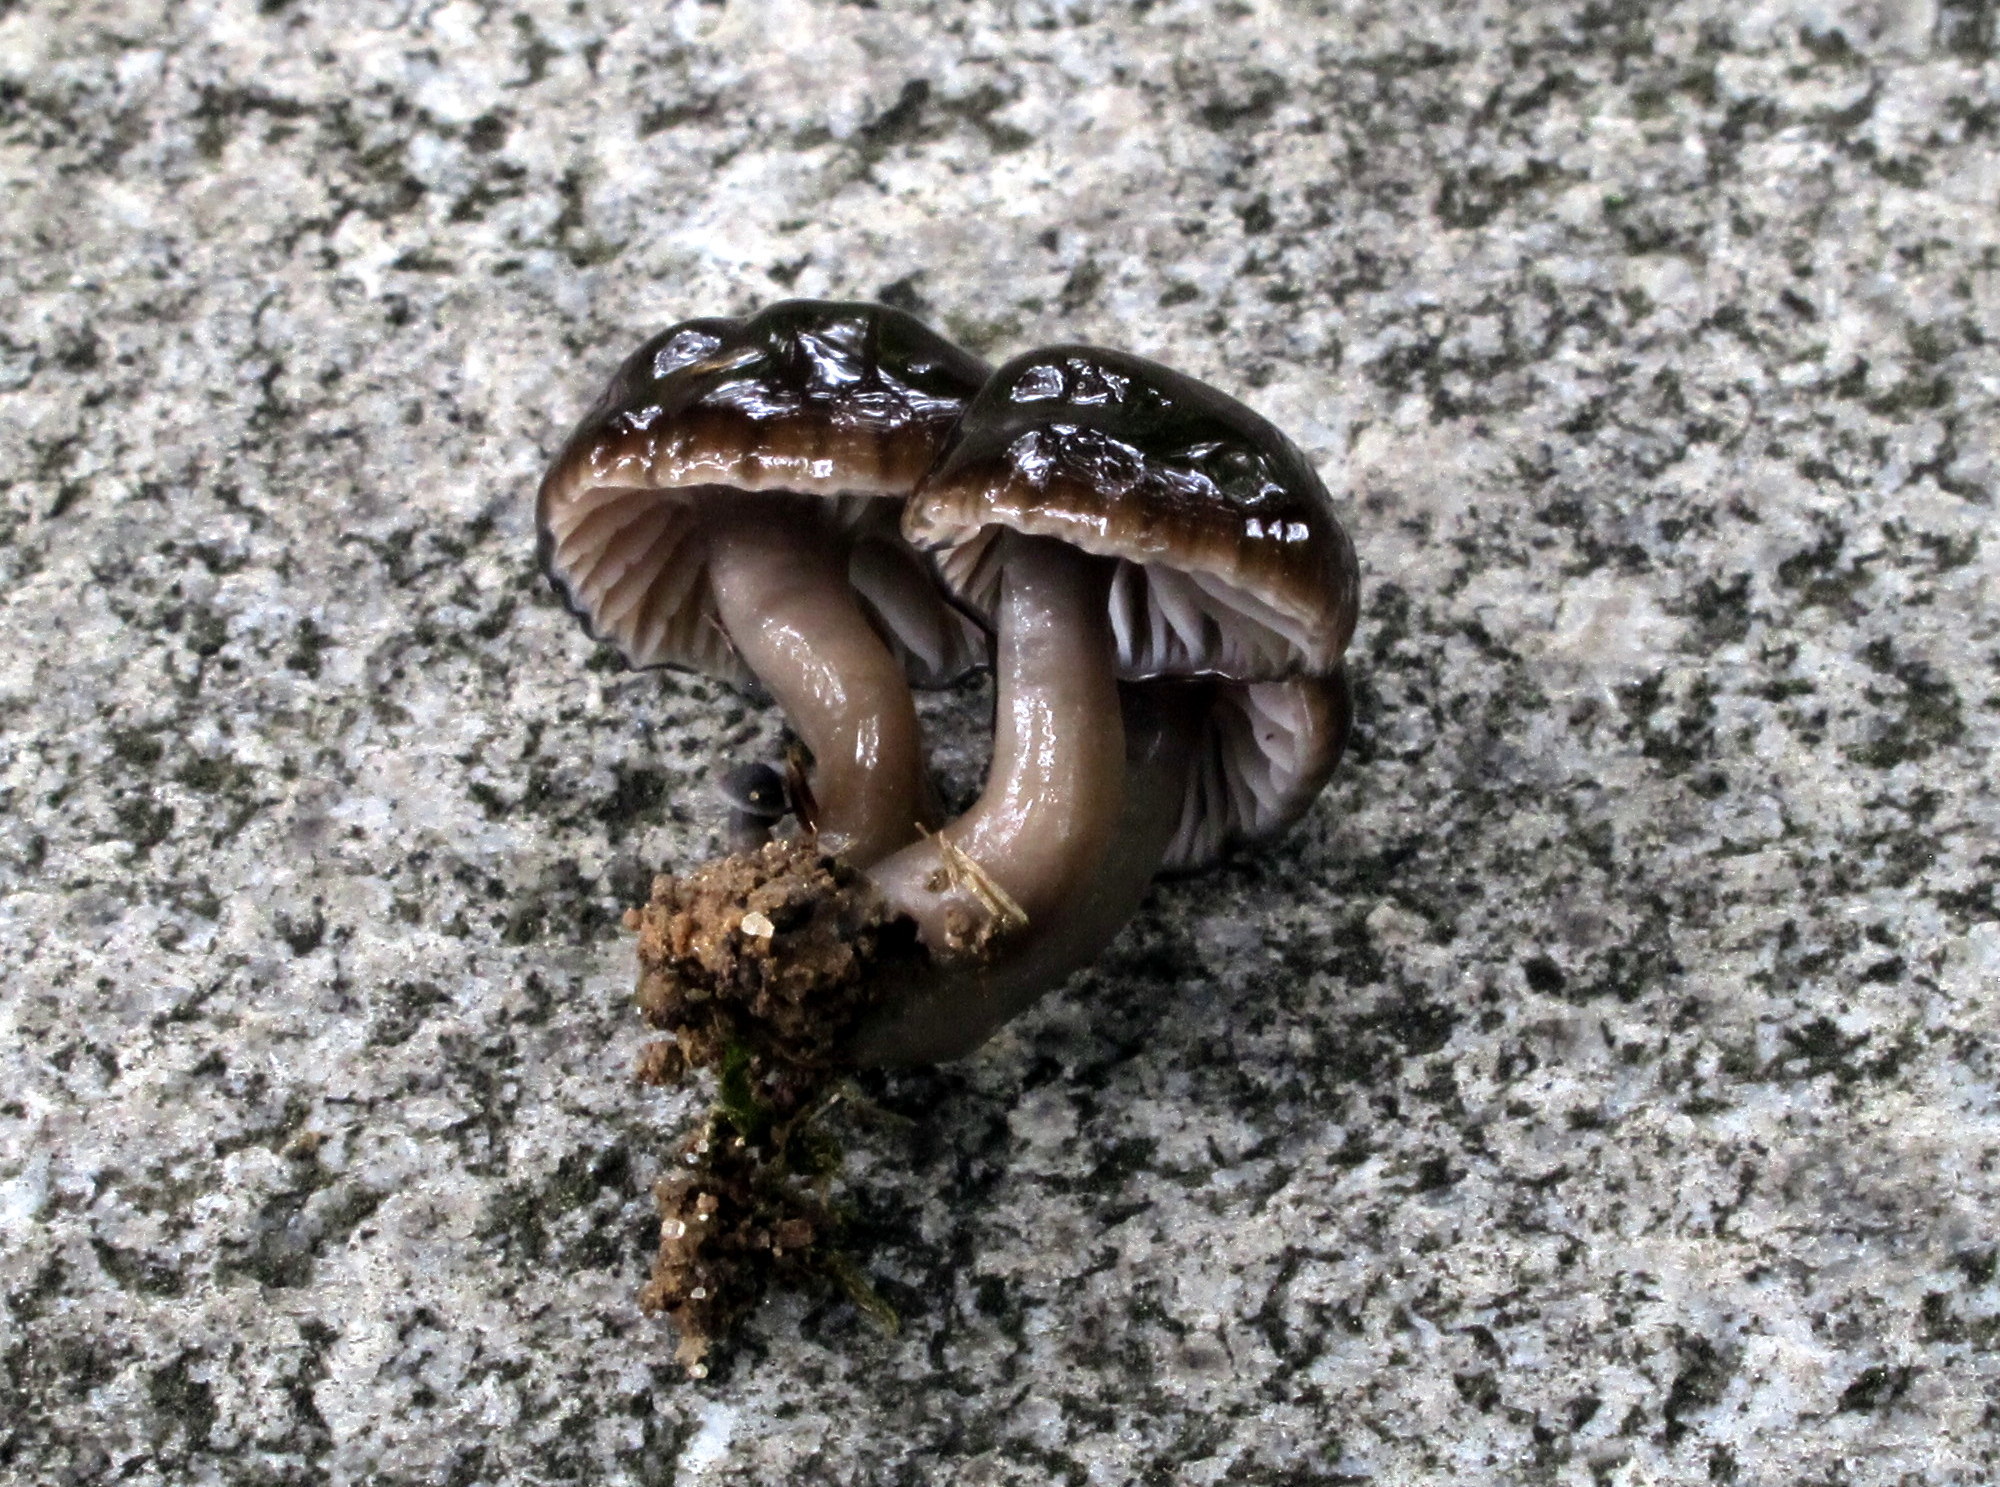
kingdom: Fungi
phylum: Basidiomycota
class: Agaricomycetes
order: Agaricales
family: Hygrophoraceae
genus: Gliophorus
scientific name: Gliophorus irrigatus
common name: Slimy waxcap
